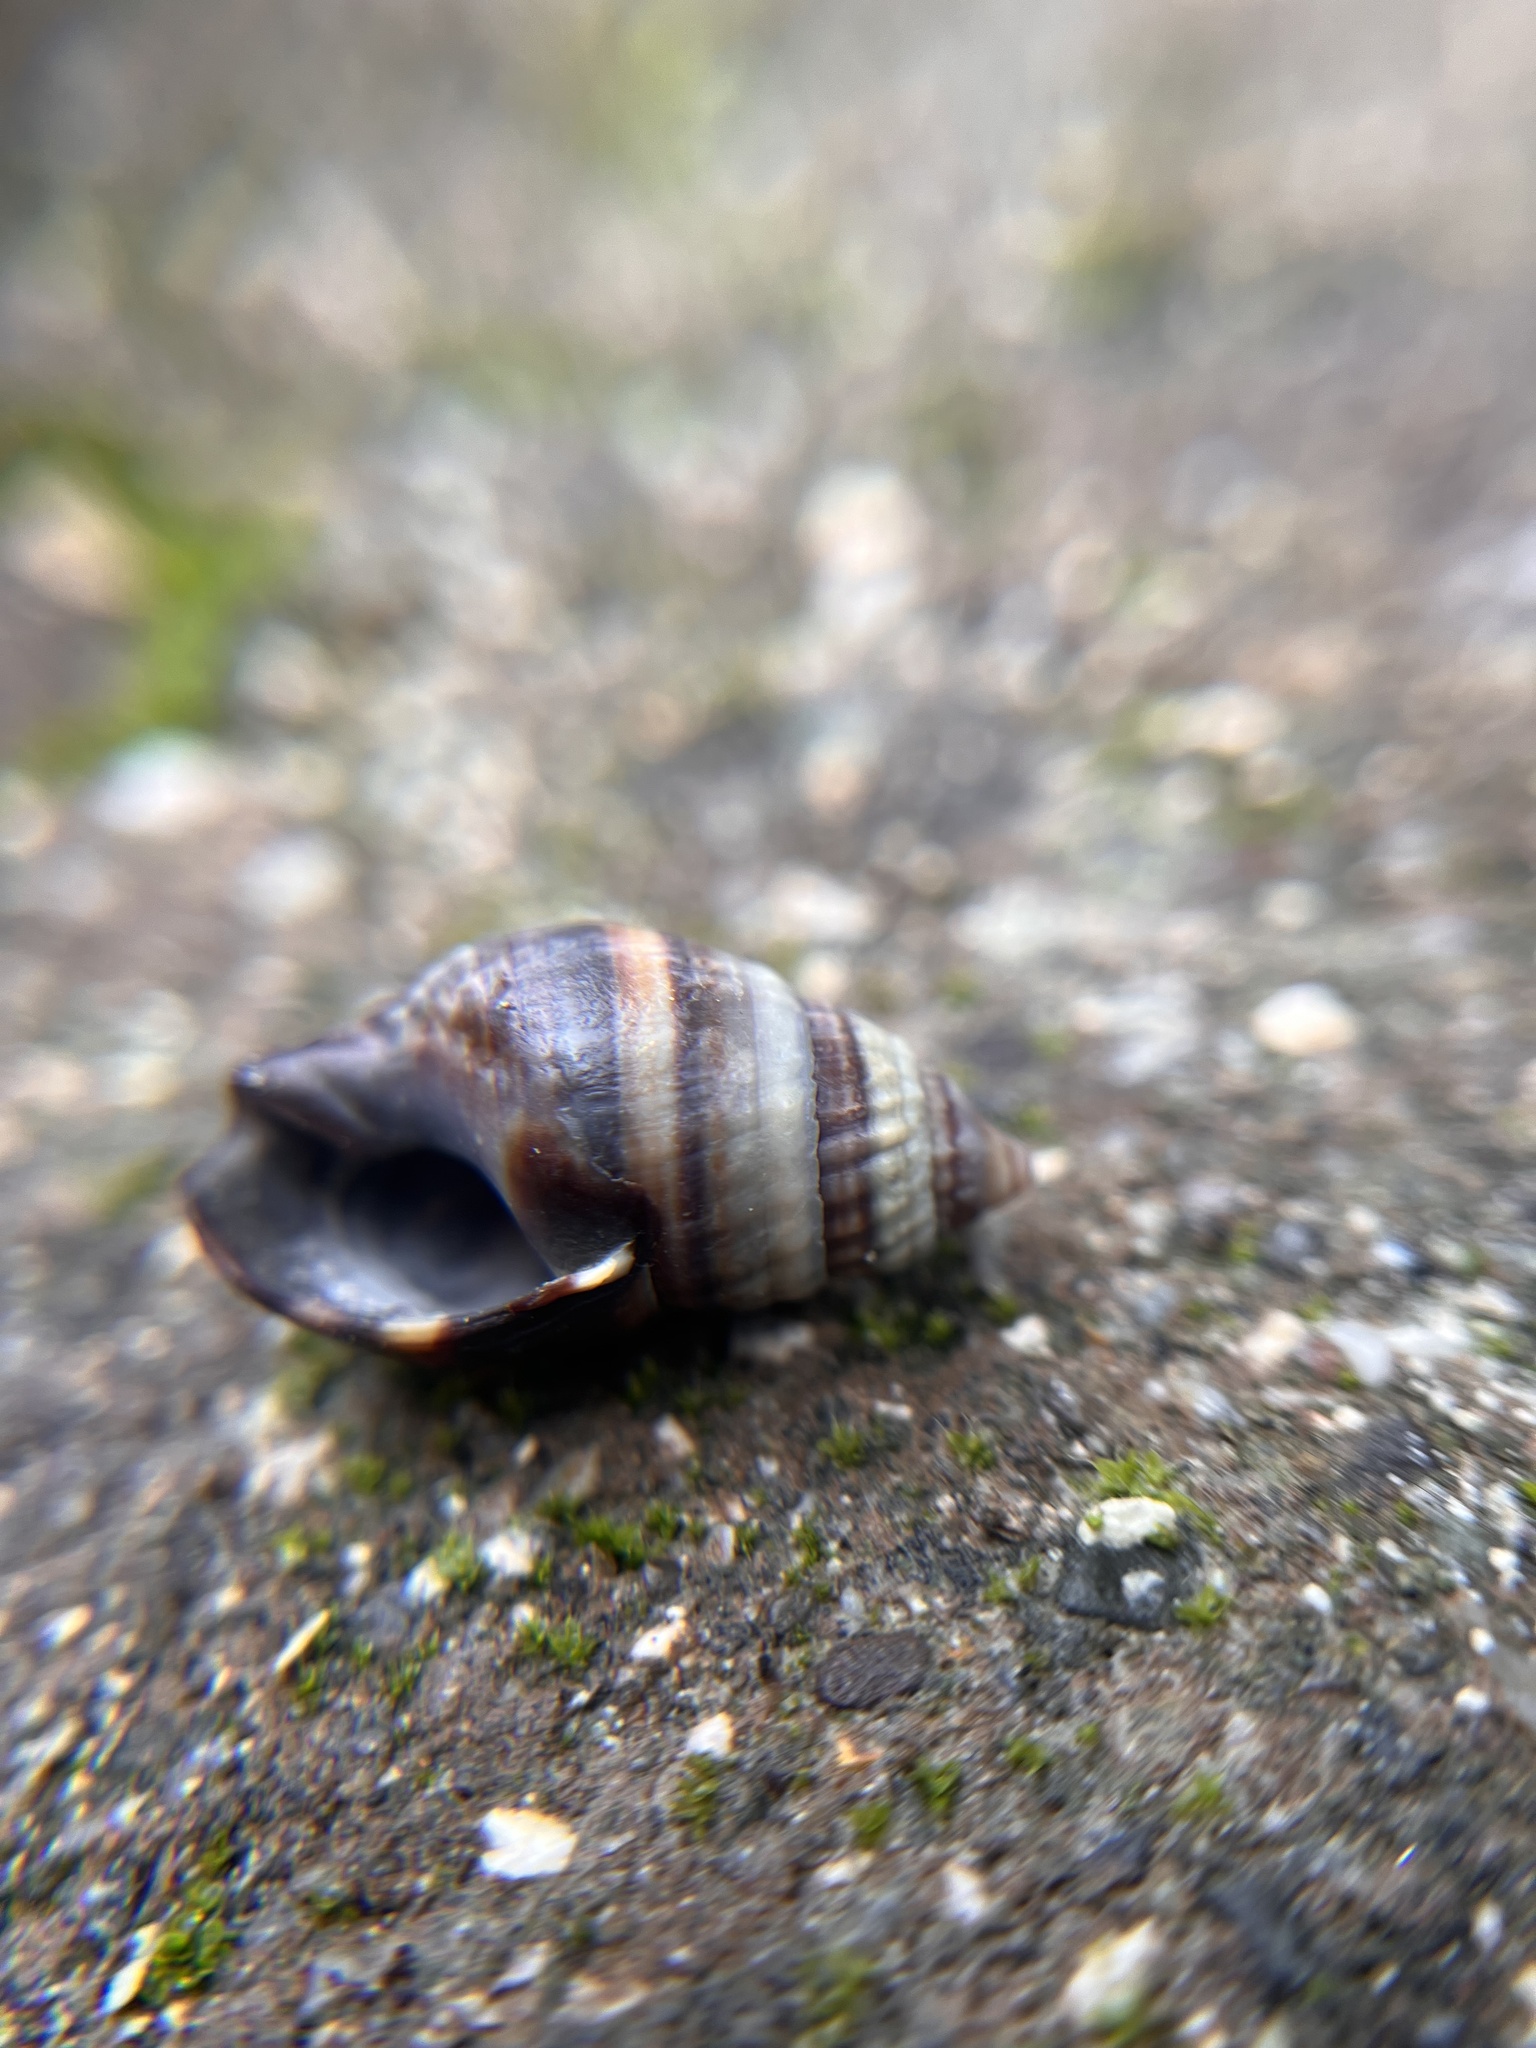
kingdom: Animalia
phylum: Mollusca
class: Gastropoda
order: Neogastropoda
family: Nassariidae
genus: Ilyanassa
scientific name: Ilyanassa obsoleta
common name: Eastern mudsnail
